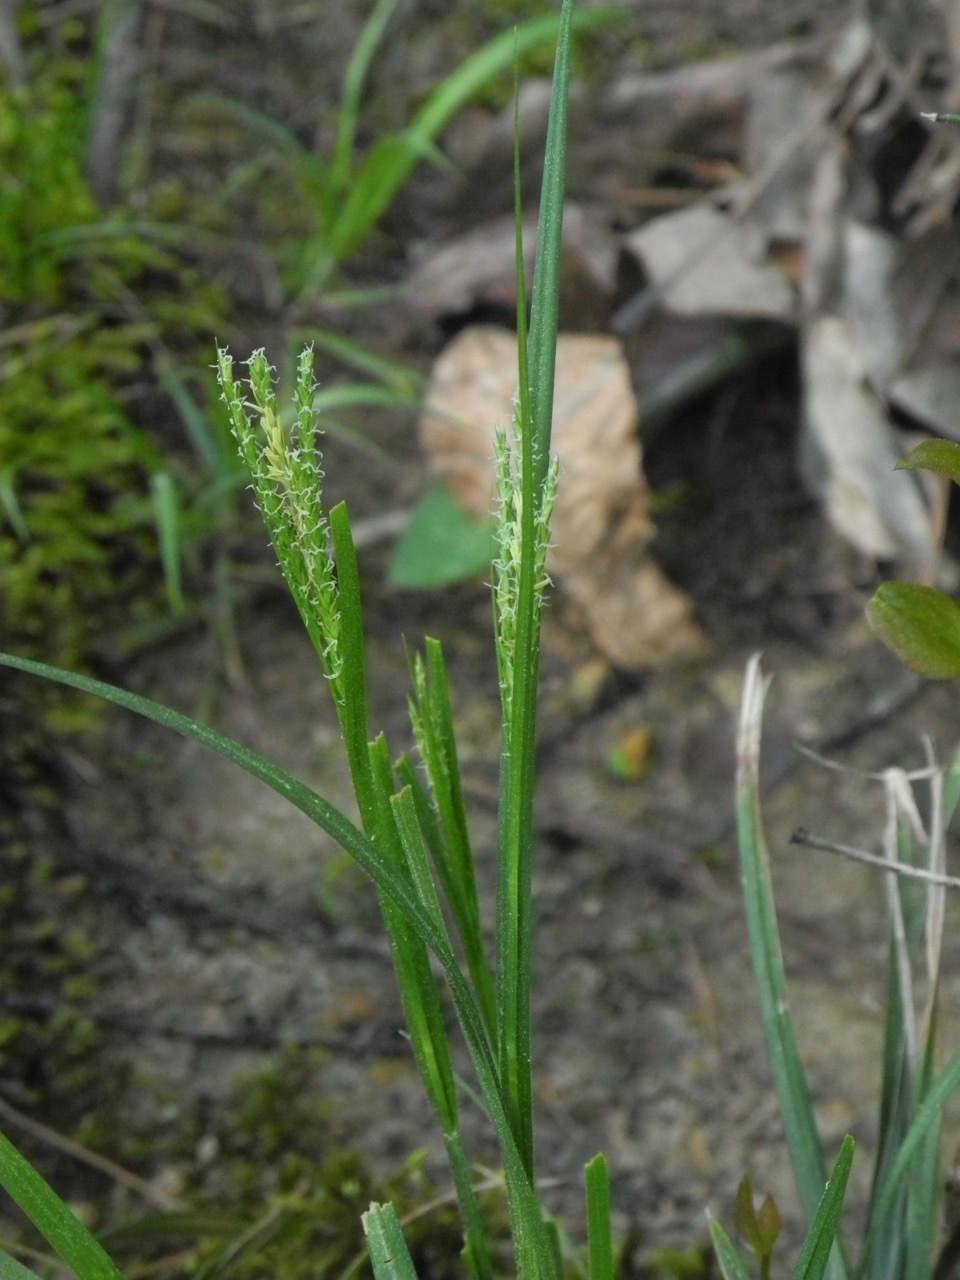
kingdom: Plantae
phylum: Tracheophyta
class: Liliopsida
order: Poales
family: Cyperaceae
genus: Carex
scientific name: Carex blanda
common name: Bland sedge
